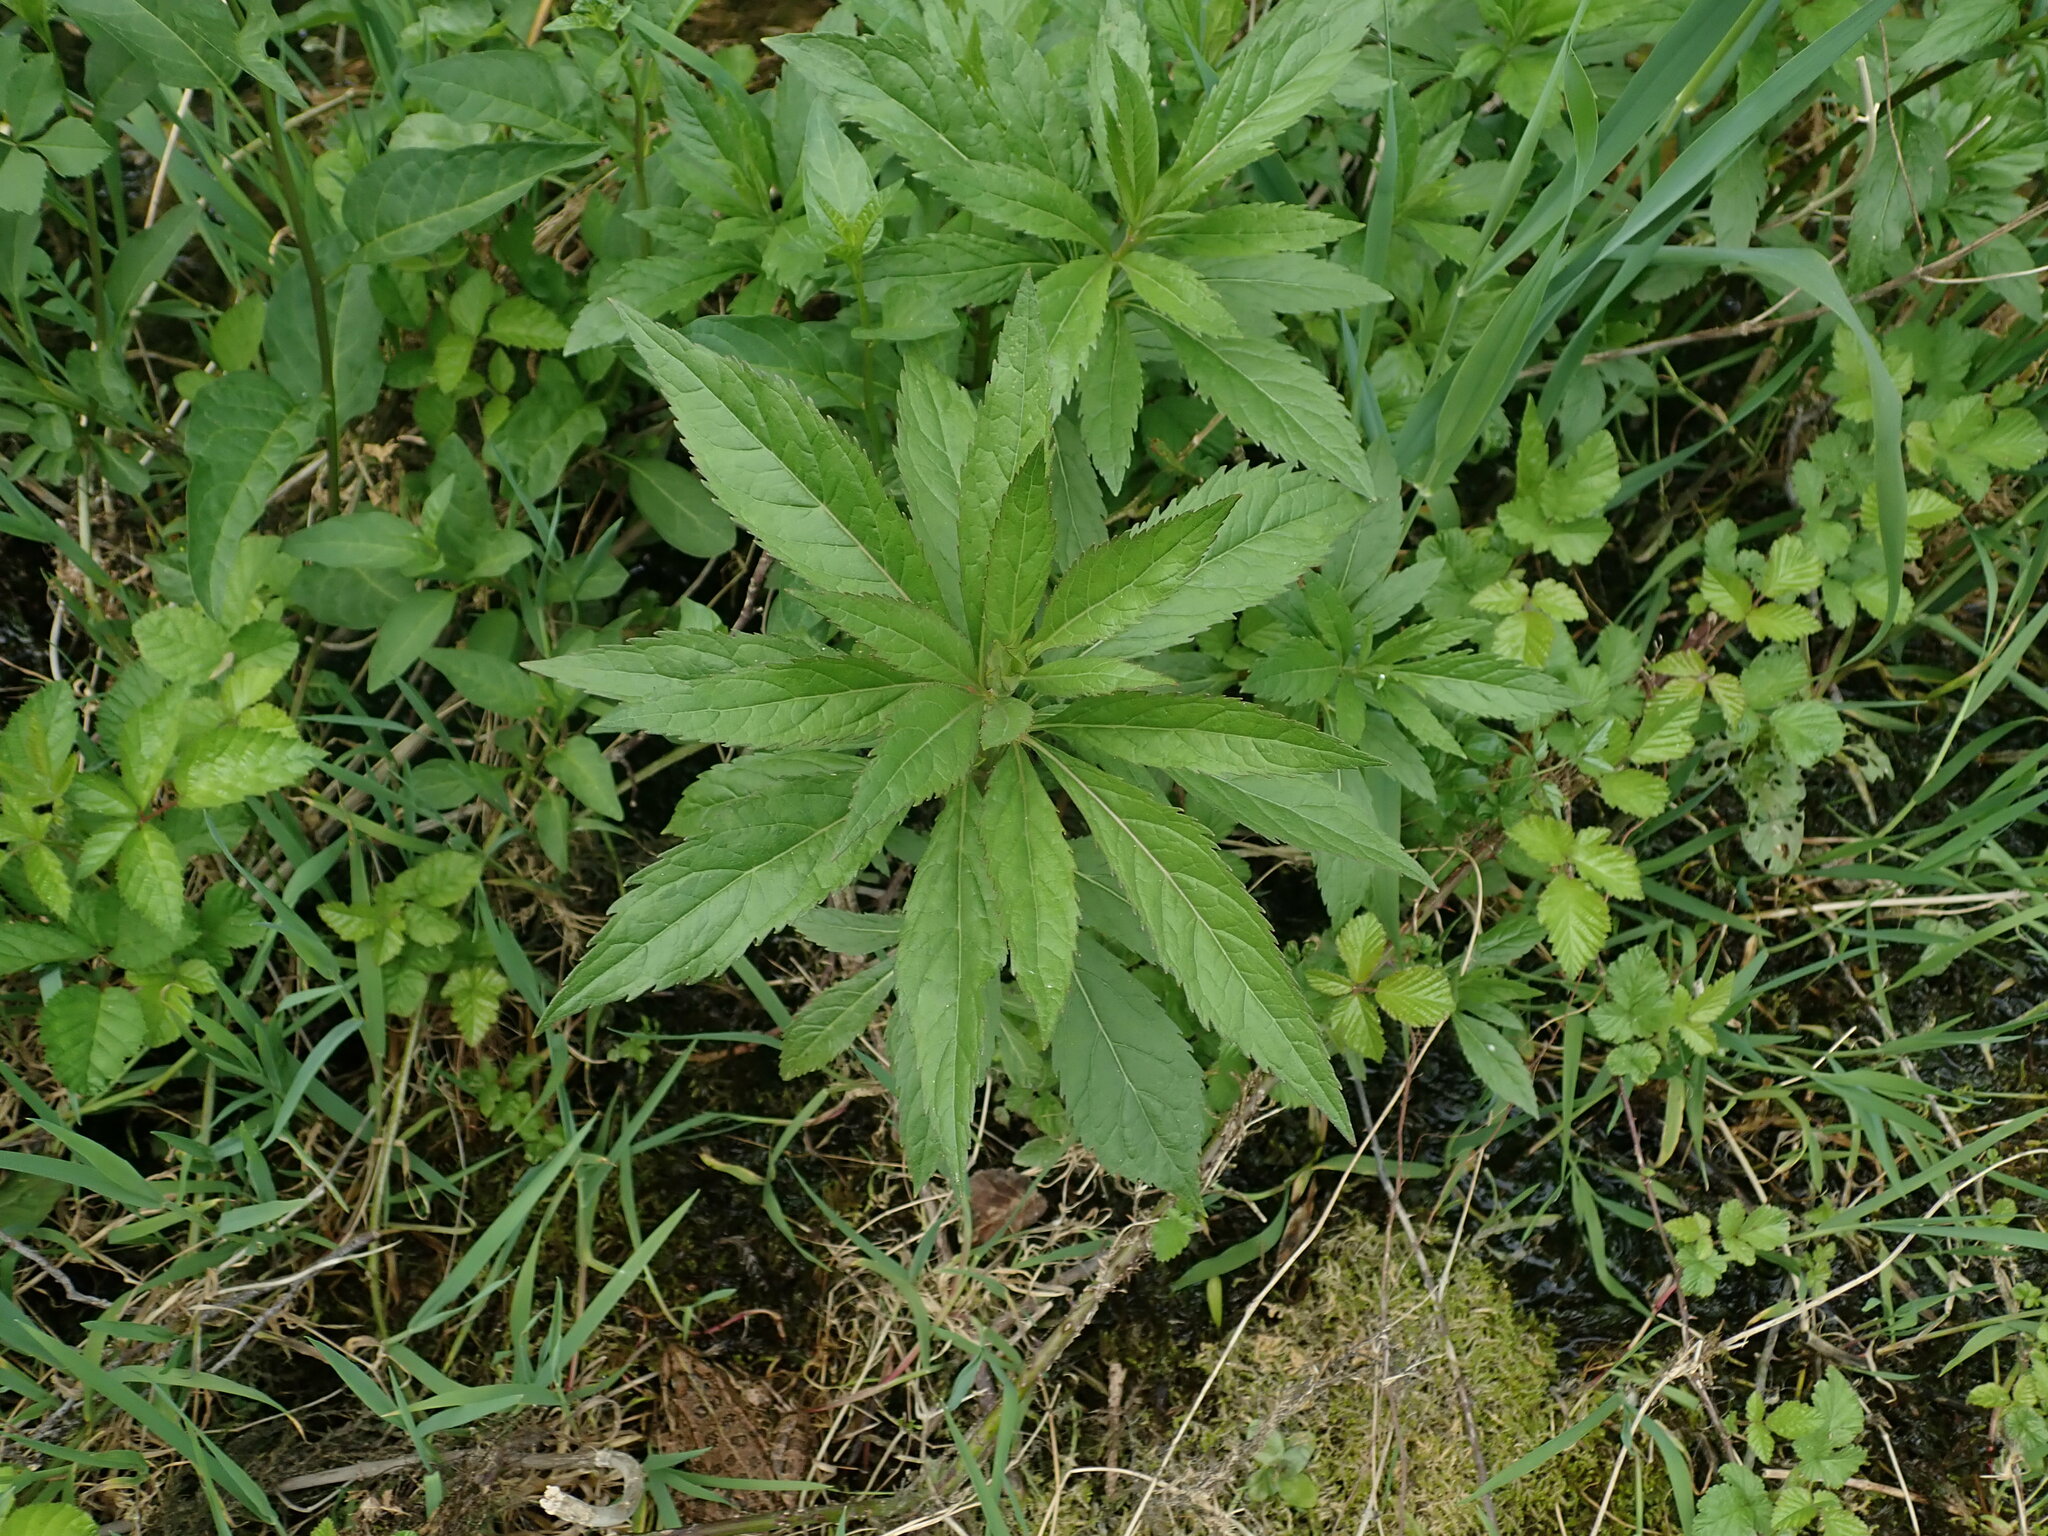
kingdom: Plantae
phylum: Tracheophyta
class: Magnoliopsida
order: Asterales
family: Asteraceae
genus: Eupatorium
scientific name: Eupatorium cannabinum
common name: Hemp-agrimony
